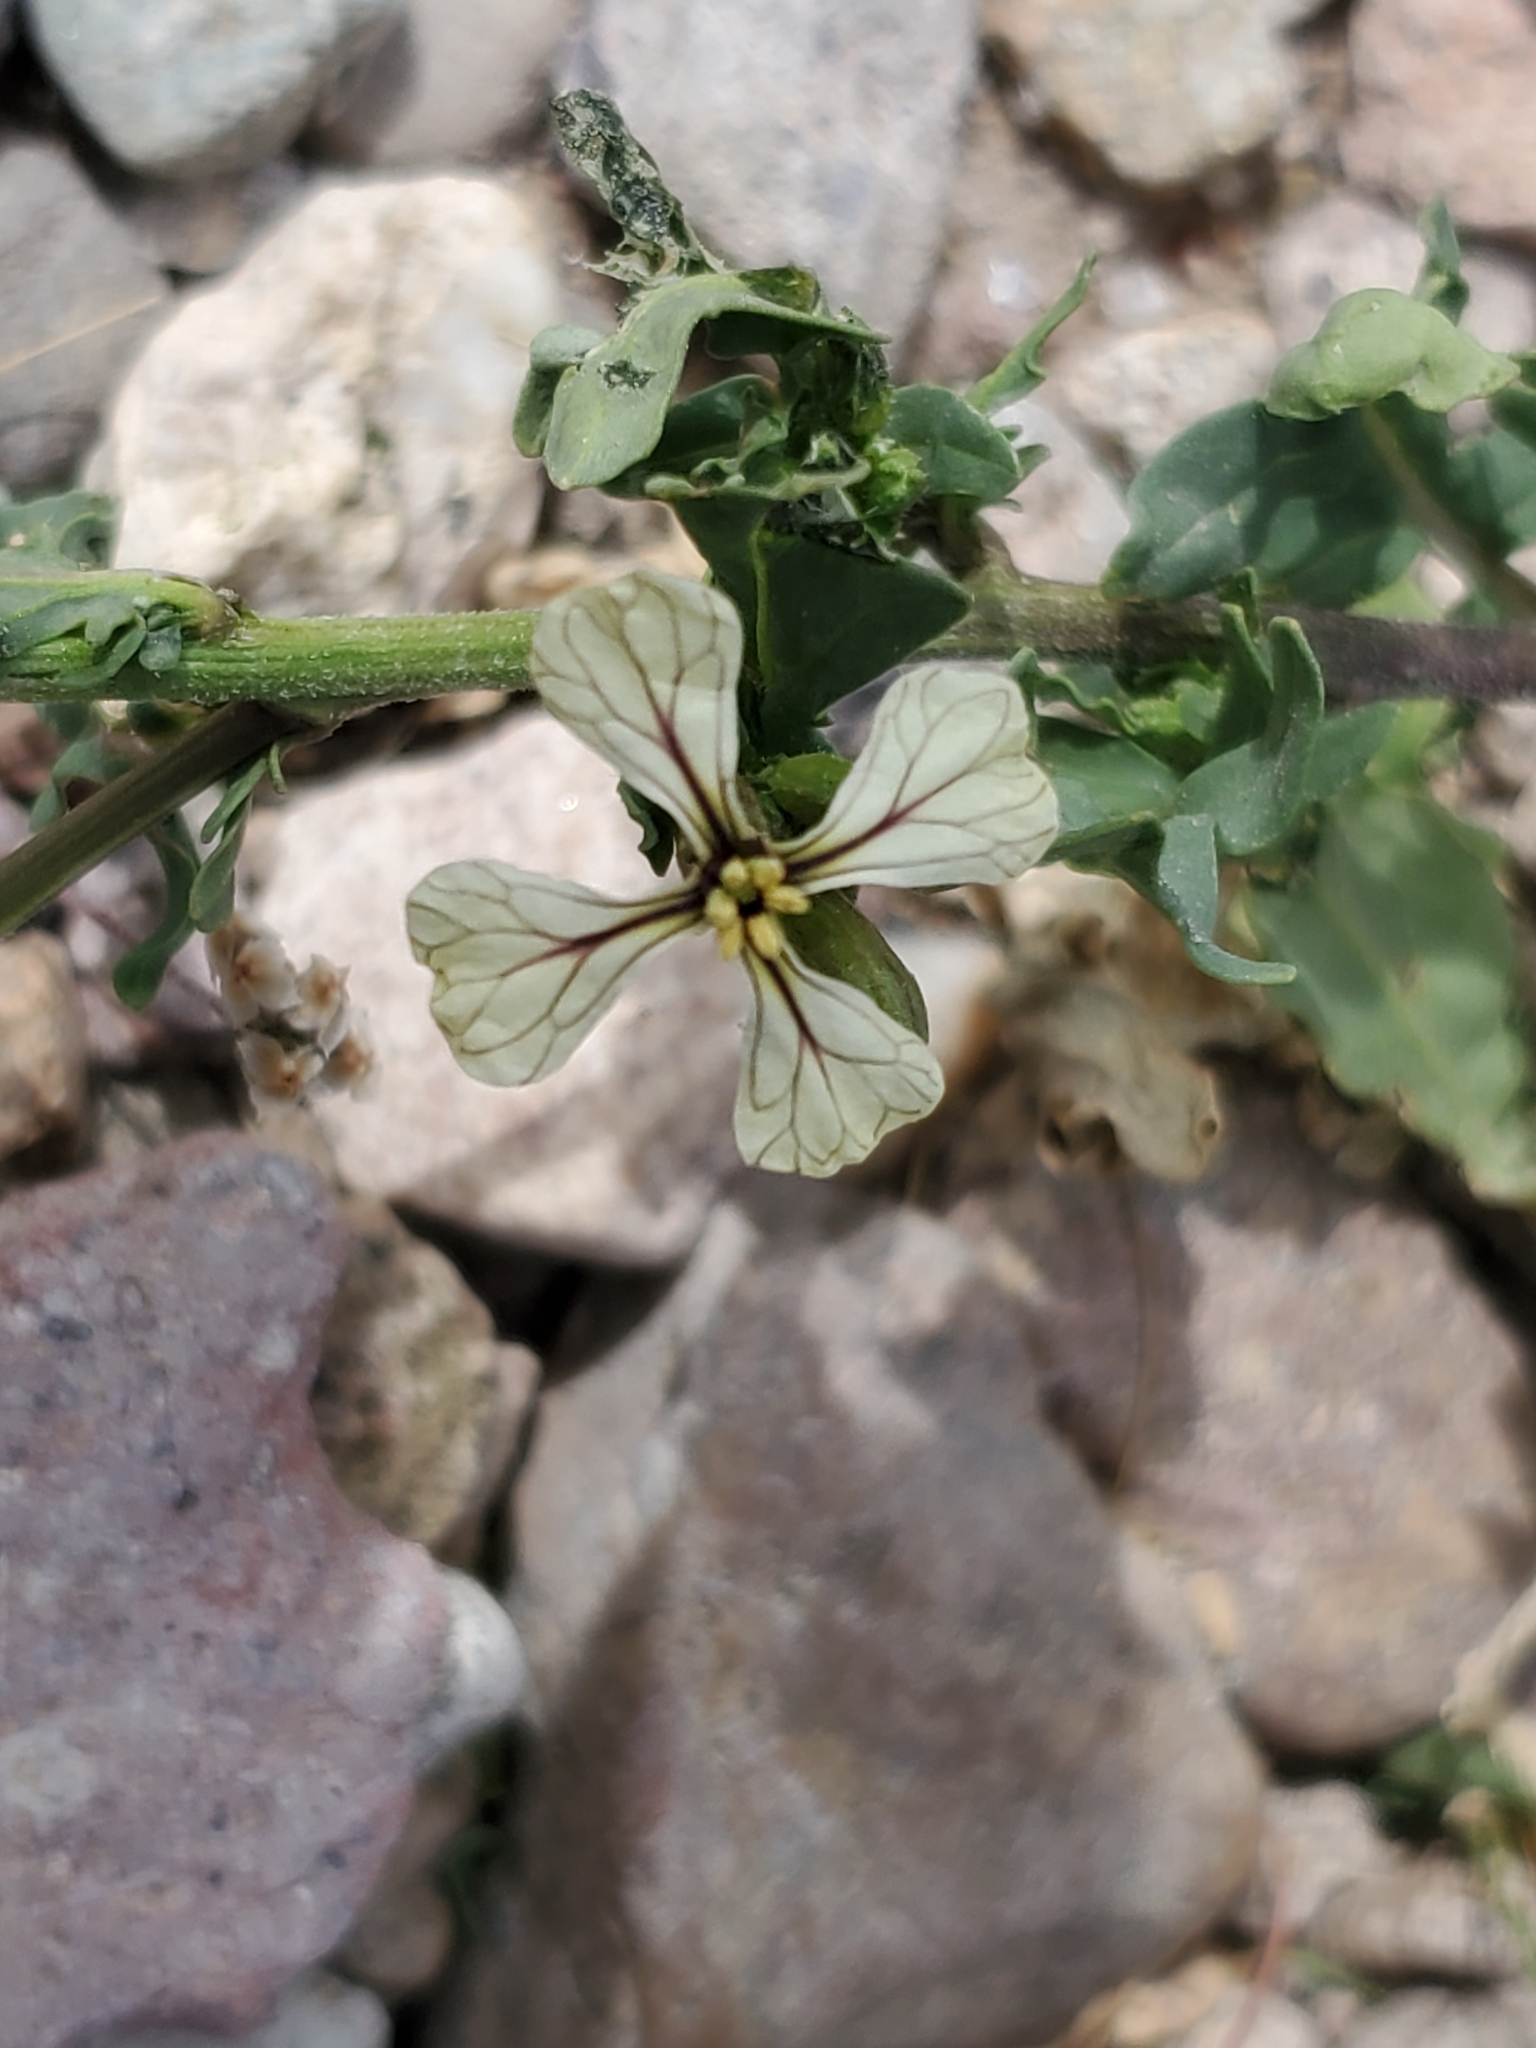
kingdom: Plantae
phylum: Tracheophyta
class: Magnoliopsida
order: Brassicales
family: Brassicaceae
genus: Eruca
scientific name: Eruca vesicaria
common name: Garden rocket
